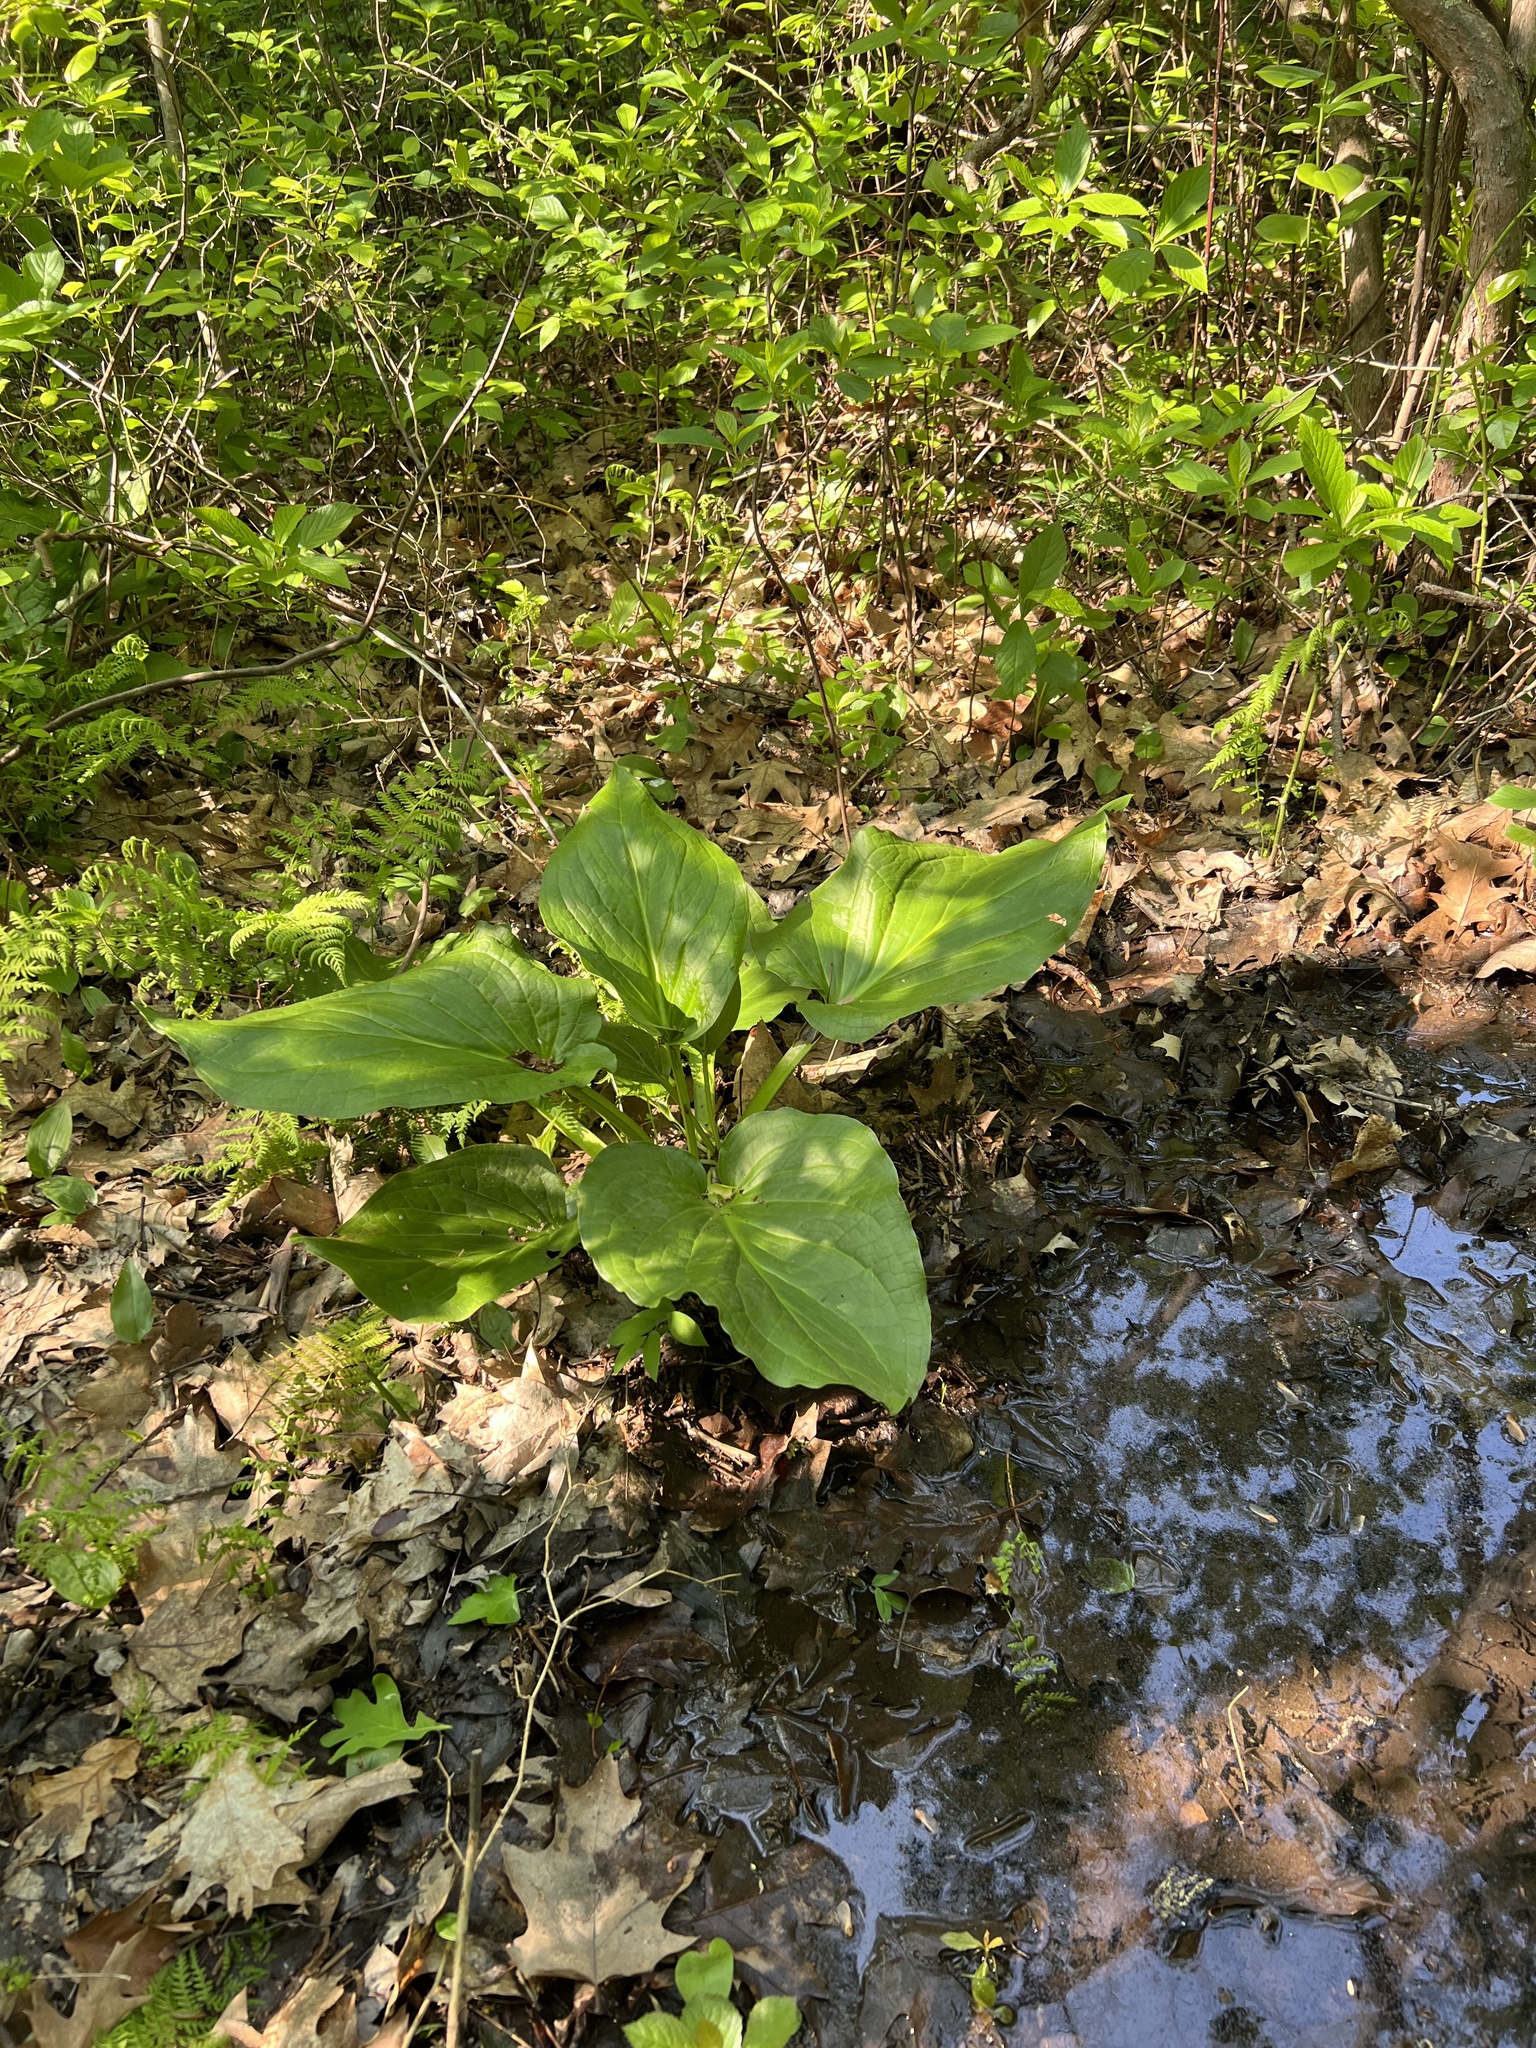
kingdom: Plantae
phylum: Tracheophyta
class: Liliopsida
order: Alismatales
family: Araceae
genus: Symplocarpus
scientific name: Symplocarpus foetidus
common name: Eastern skunk cabbage
